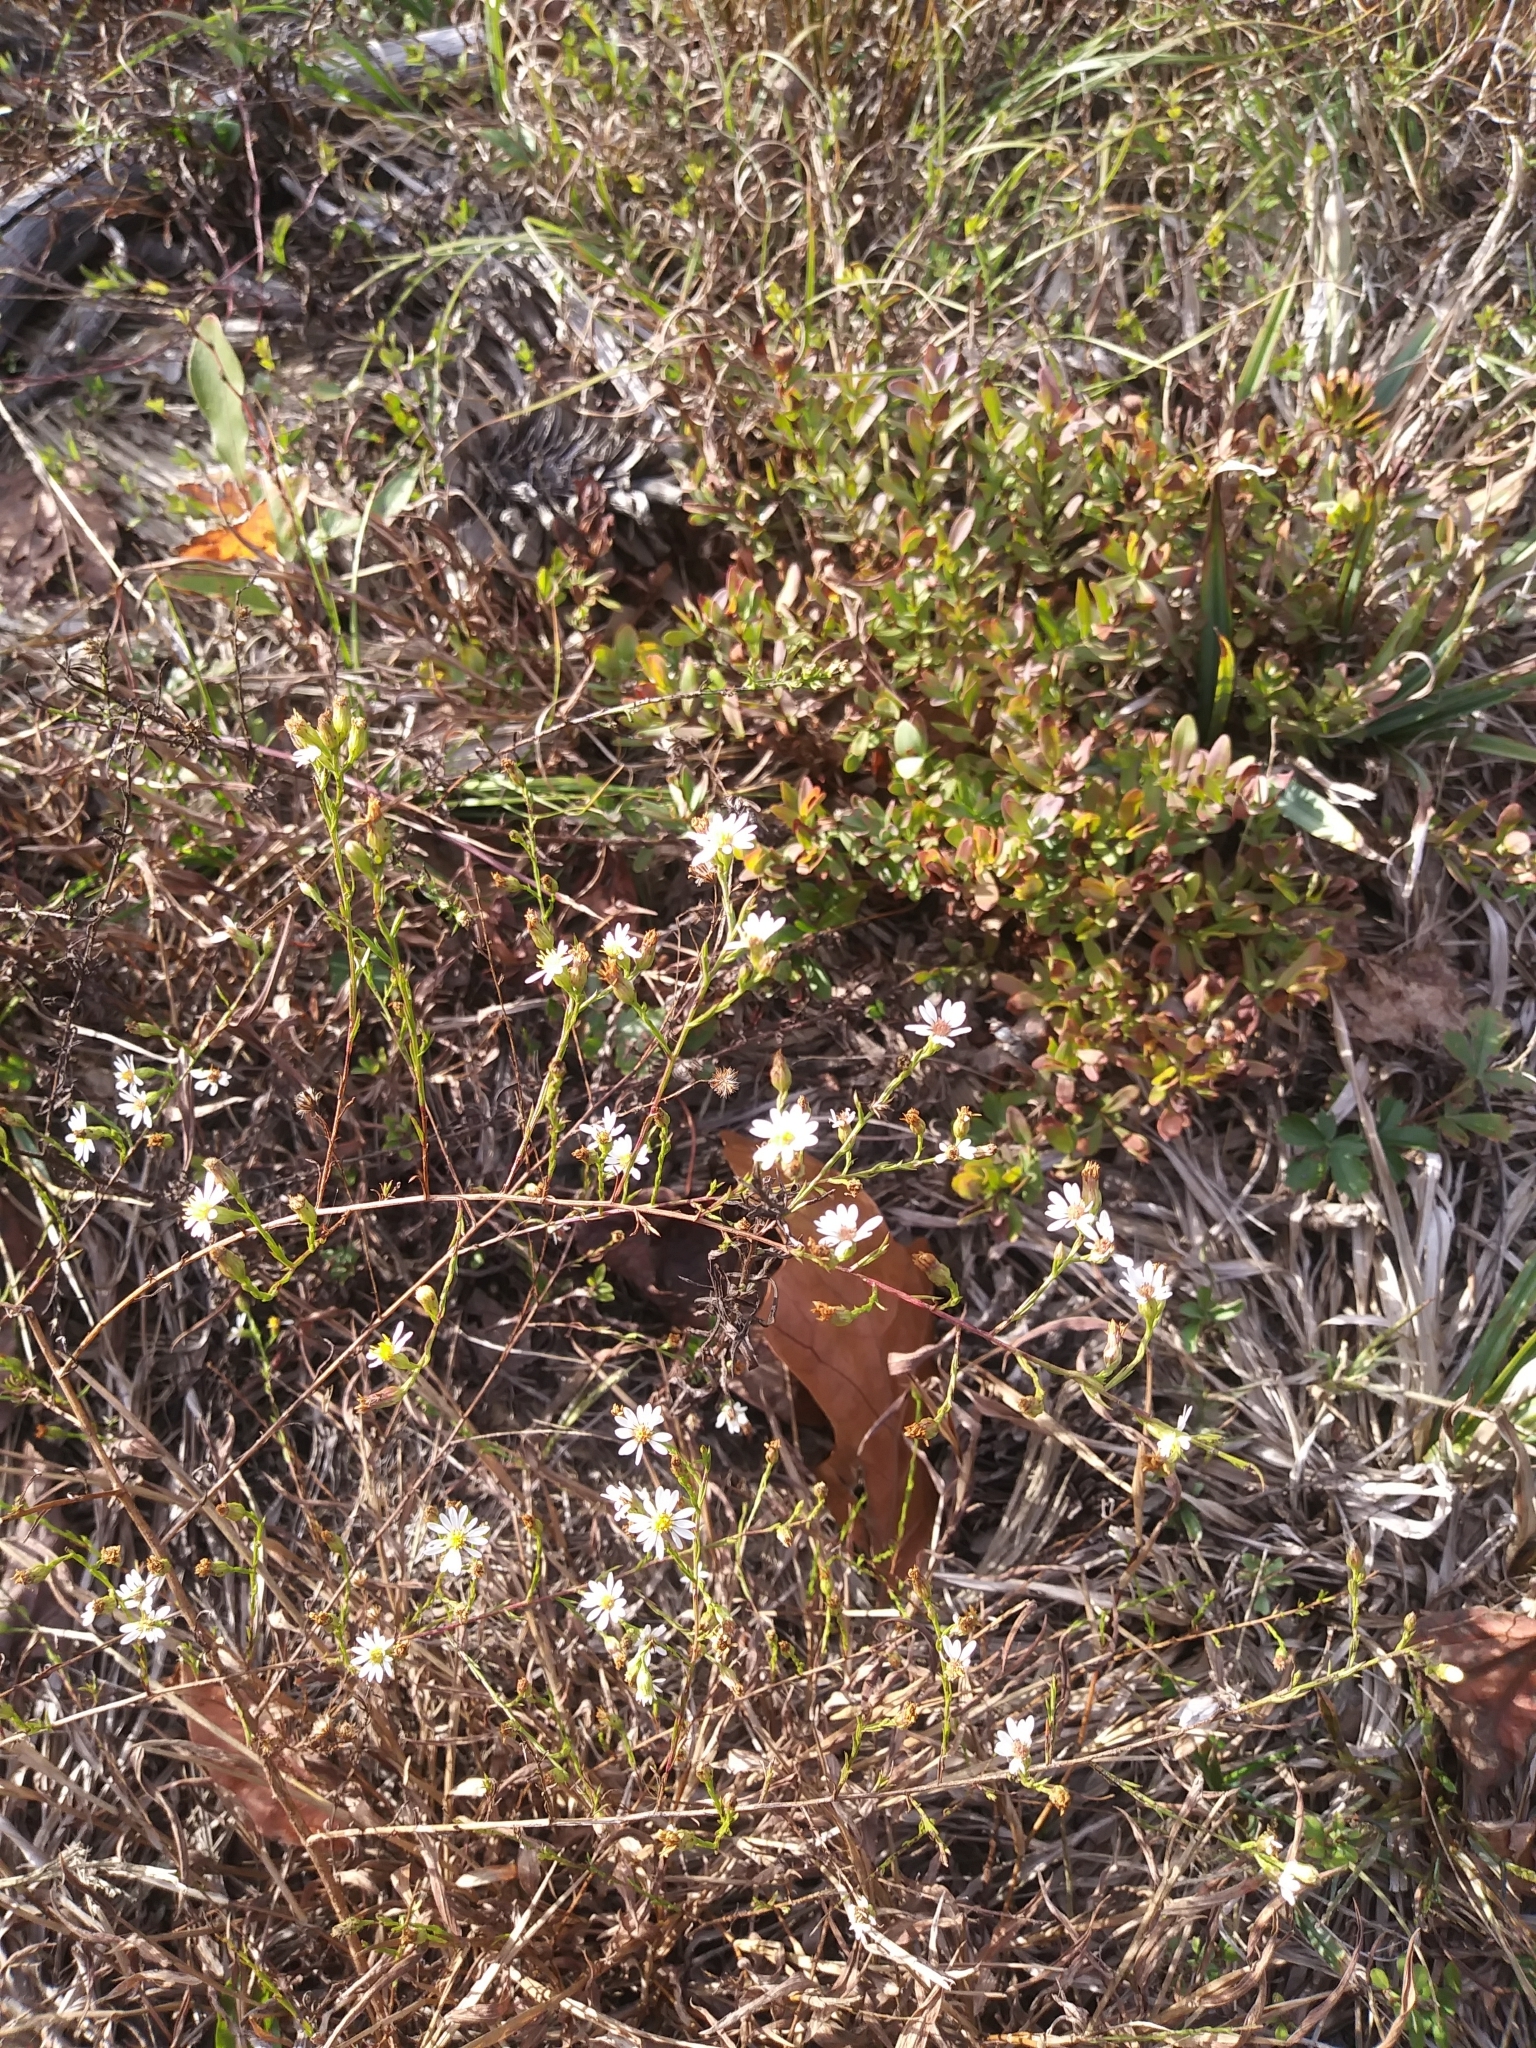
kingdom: Plantae
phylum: Tracheophyta
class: Magnoliopsida
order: Asterales
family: Asteraceae
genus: Symphyotrichum
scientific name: Symphyotrichum depauperatum
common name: Serpentine aster
